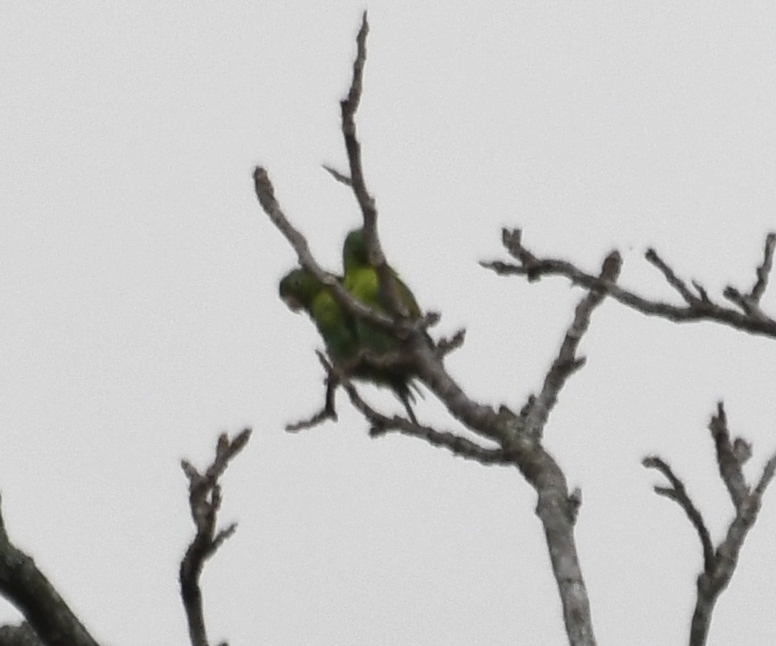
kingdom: Animalia
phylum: Chordata
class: Aves
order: Psittaciformes
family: Psittacidae
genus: Bolborhynchus
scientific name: Bolborhynchus lineola
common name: Barred parakeet
